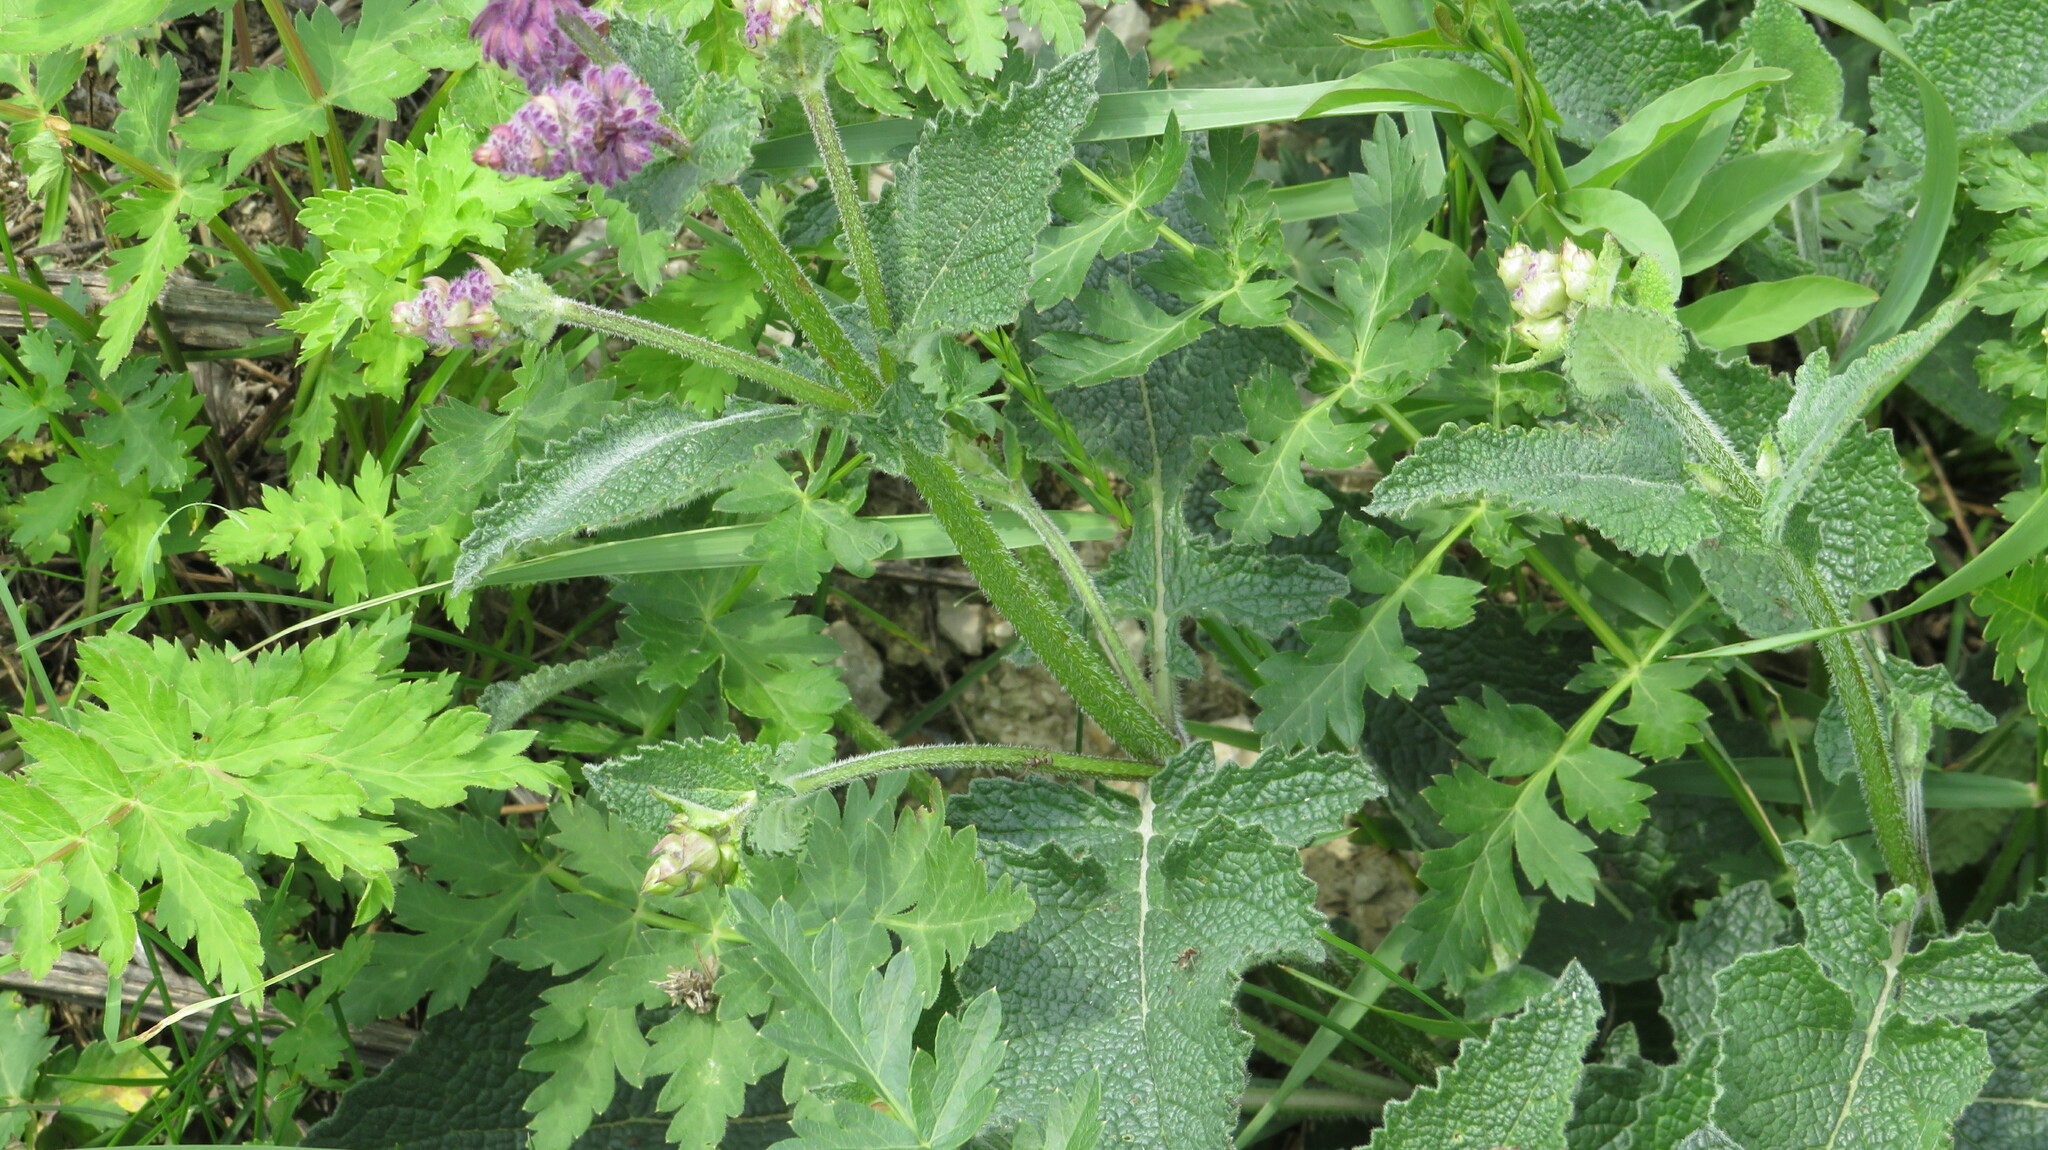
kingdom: Plantae
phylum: Tracheophyta
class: Magnoliopsida
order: Lamiales
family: Lamiaceae
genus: Salvia
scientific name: Salvia verticillata
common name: Whorled clary
